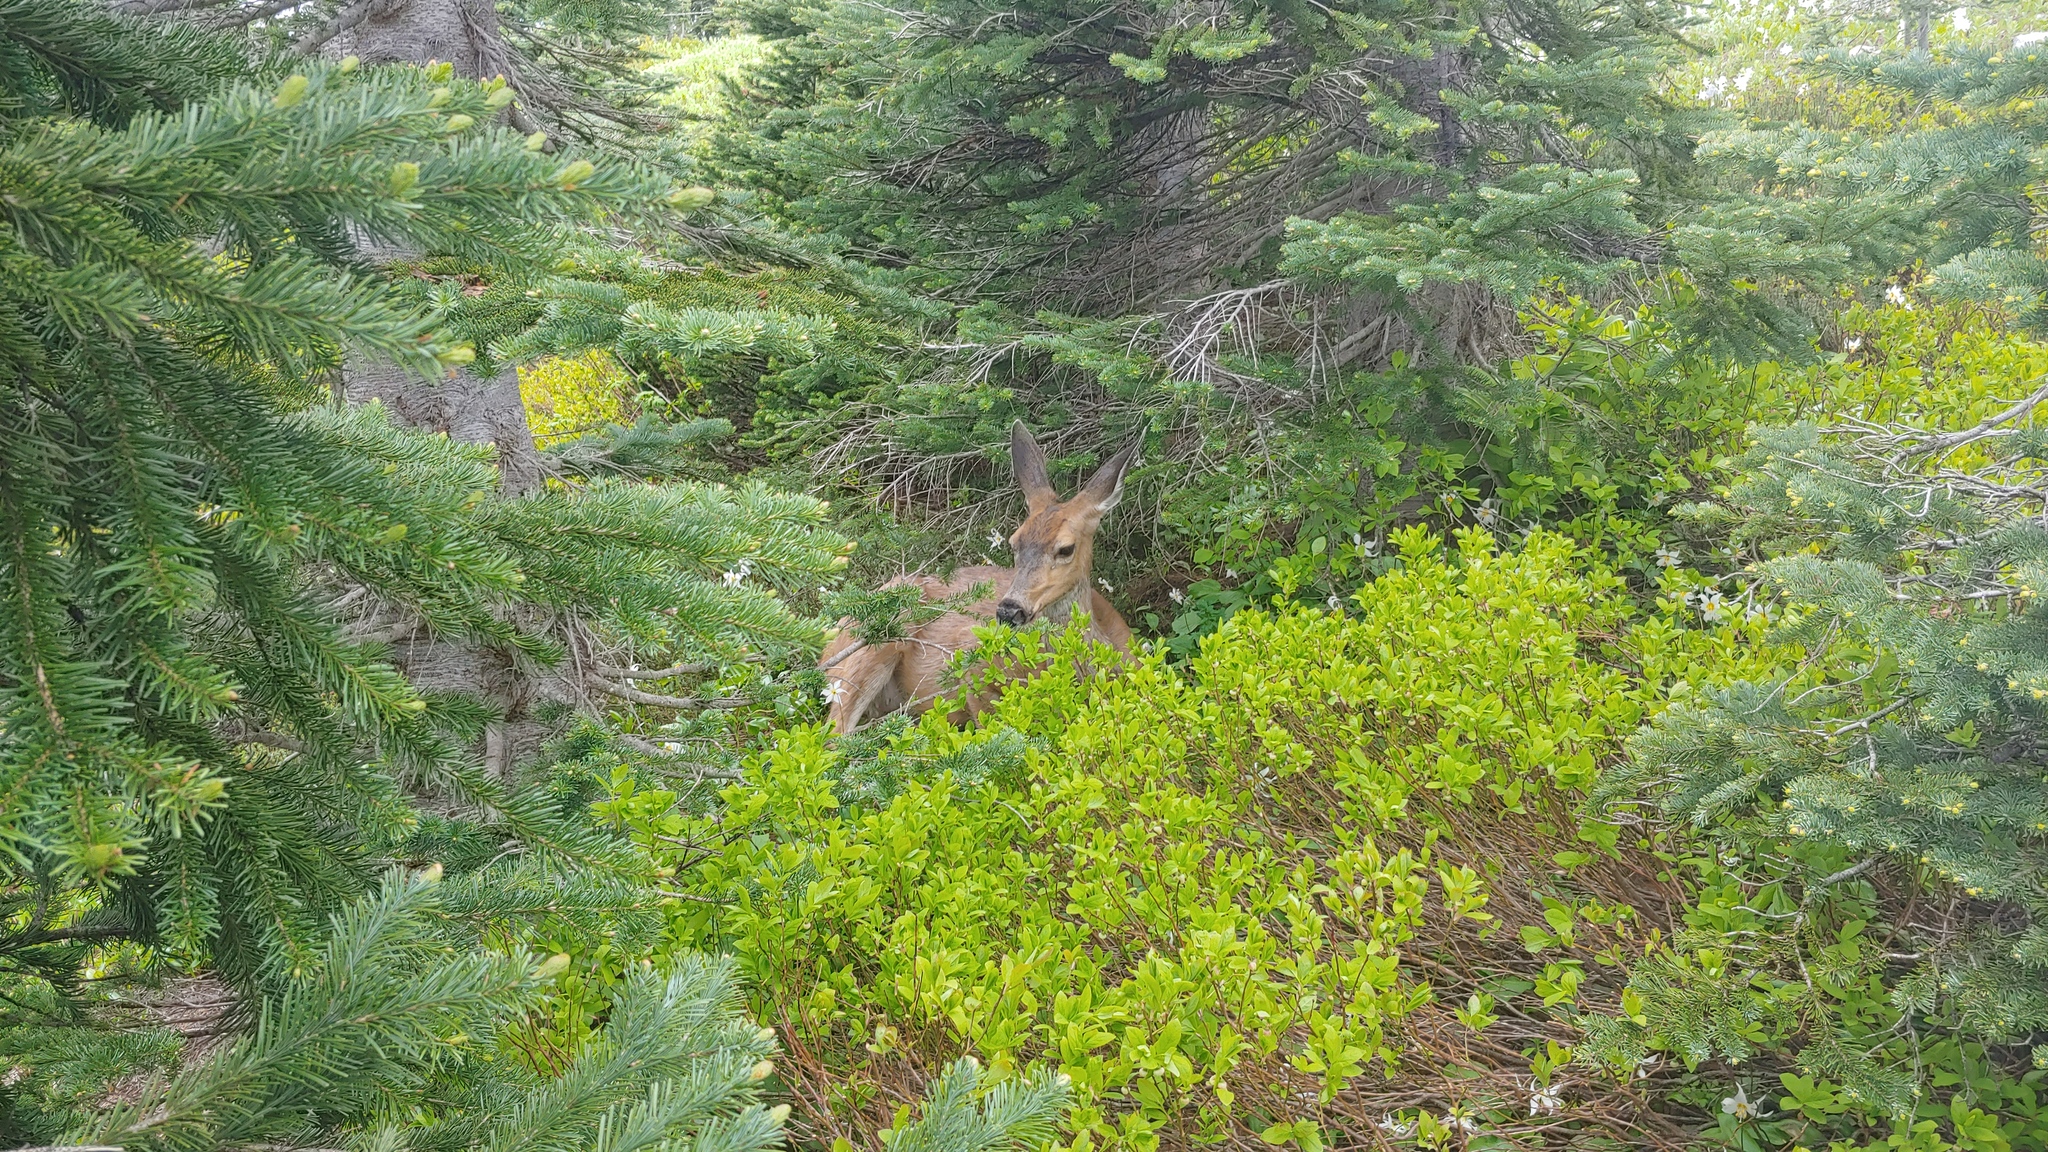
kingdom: Animalia
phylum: Chordata
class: Mammalia
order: Artiodactyla
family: Cervidae
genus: Odocoileus
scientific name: Odocoileus hemionus
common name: Mule deer
